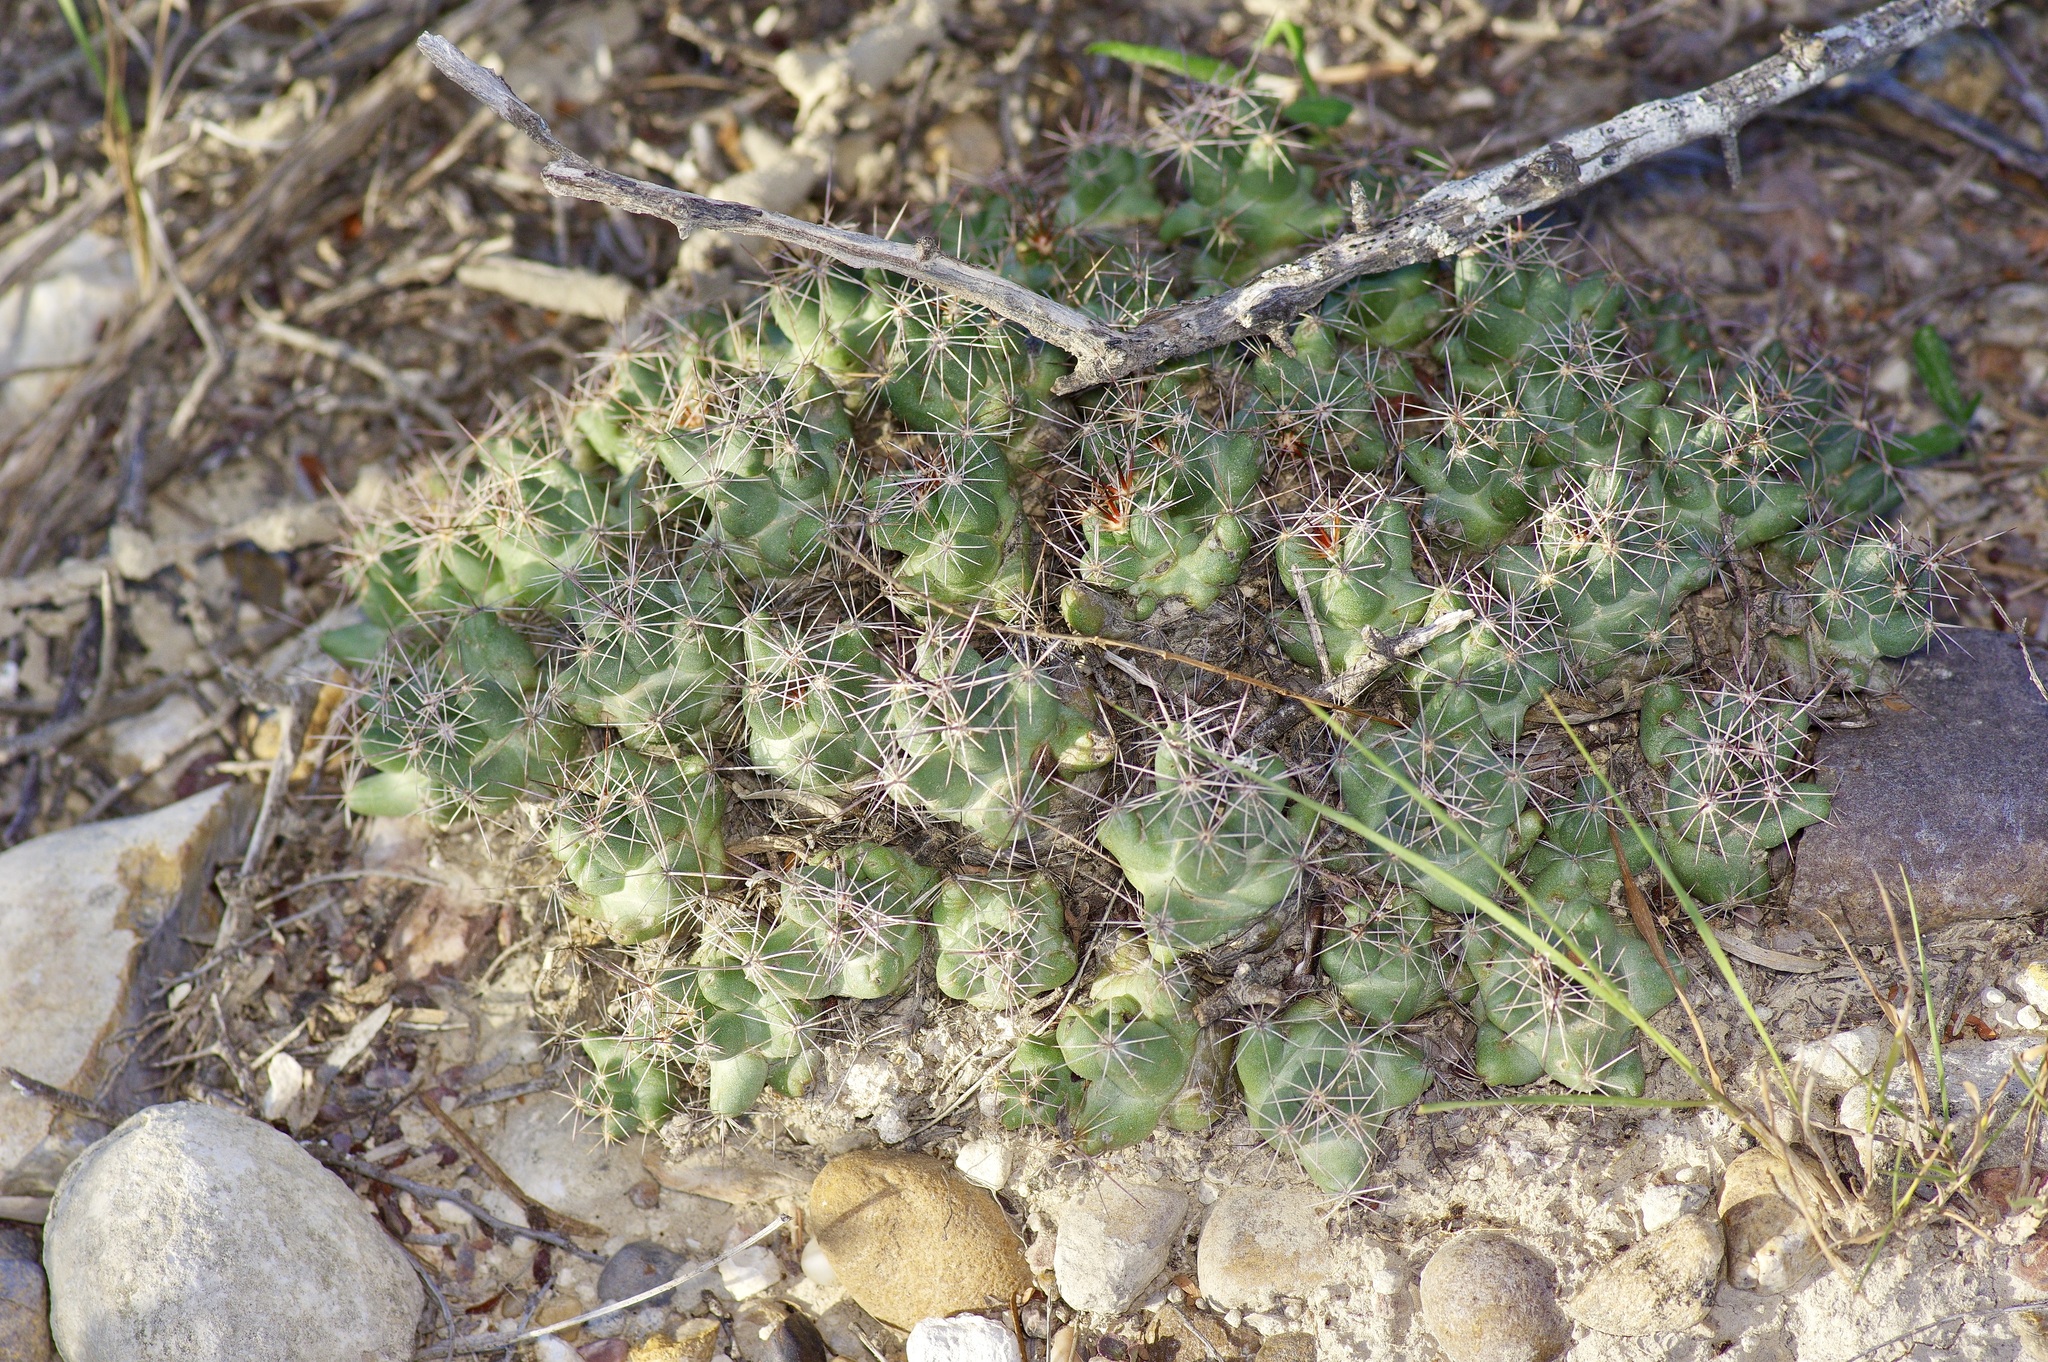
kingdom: Plantae
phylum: Tracheophyta
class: Magnoliopsida
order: Caryophyllales
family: Cactaceae
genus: Pelecyphora
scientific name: Pelecyphora macromeris
